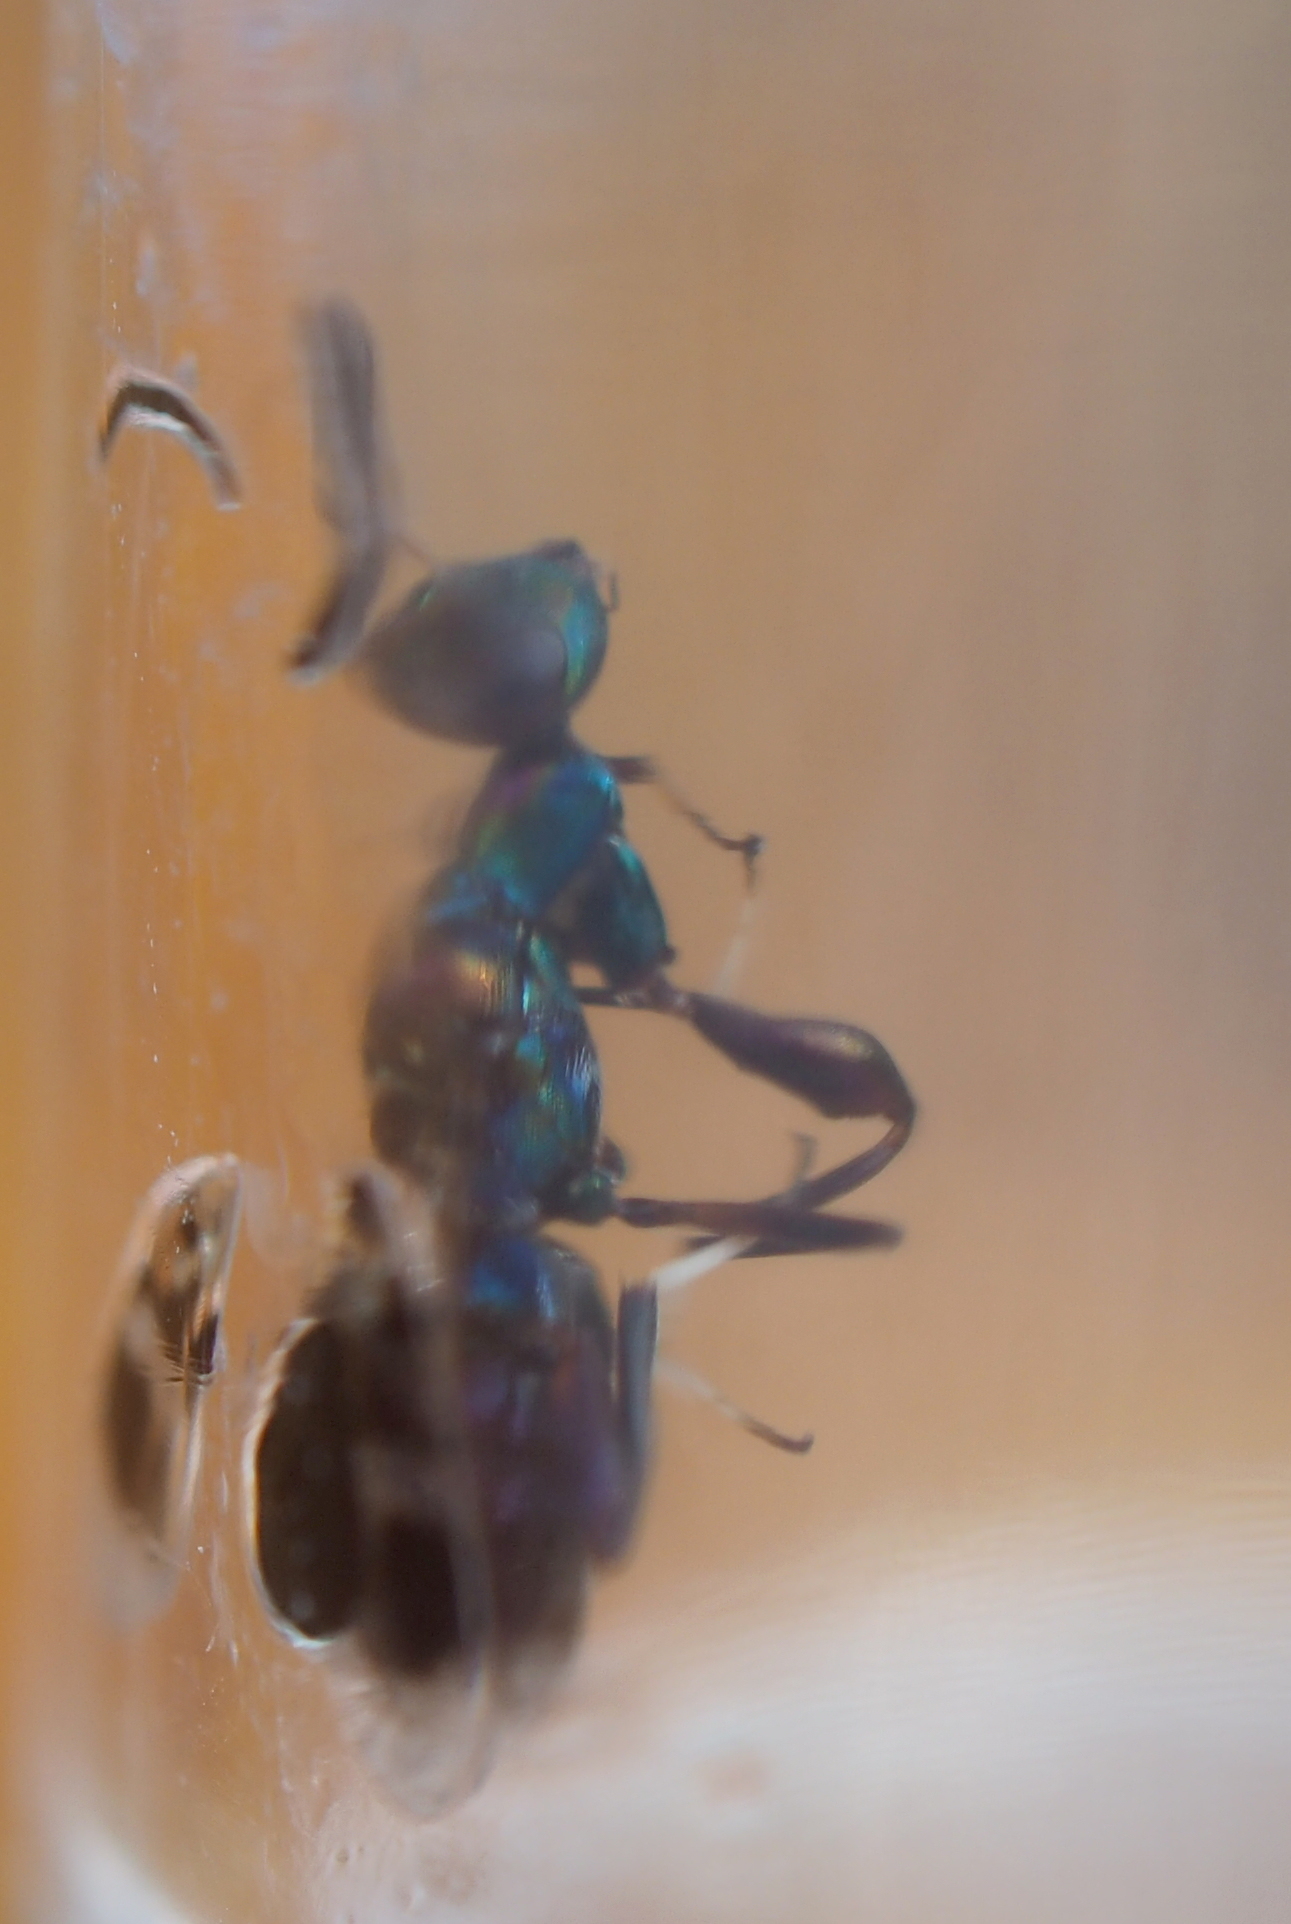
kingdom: Animalia
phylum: Arthropoda
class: Insecta
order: Hymenoptera
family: Pteromalidae
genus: Heydenia
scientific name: Heydenia pretiosa
